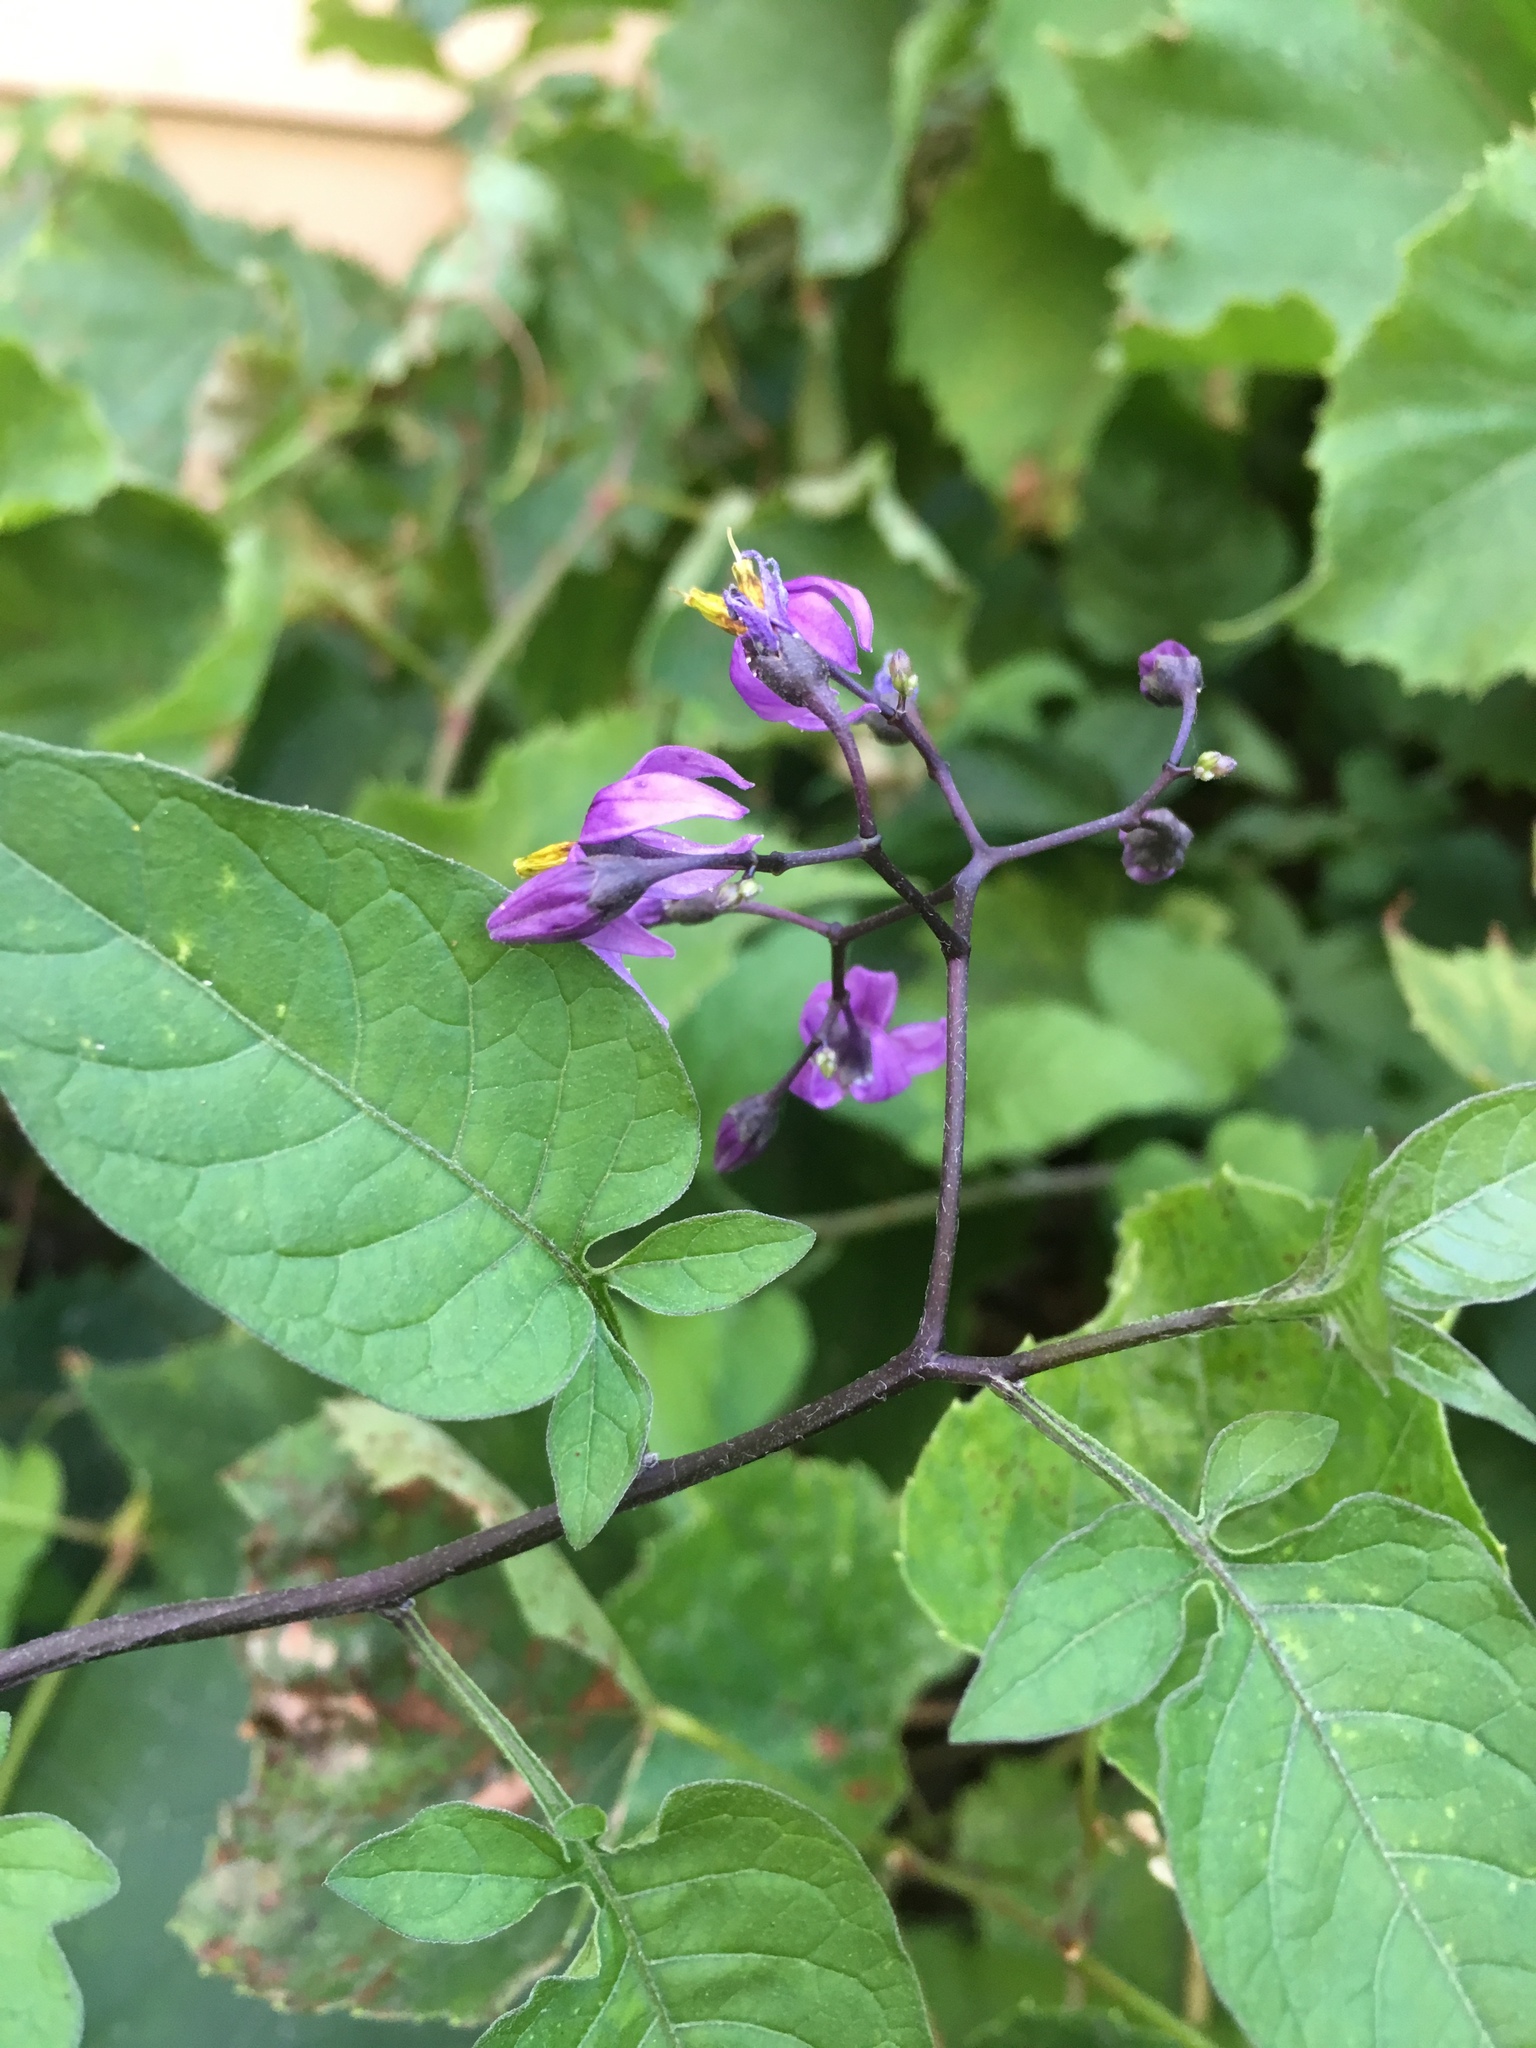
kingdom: Plantae
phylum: Tracheophyta
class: Magnoliopsida
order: Solanales
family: Solanaceae
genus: Solanum
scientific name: Solanum dulcamara
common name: Climbing nightshade
